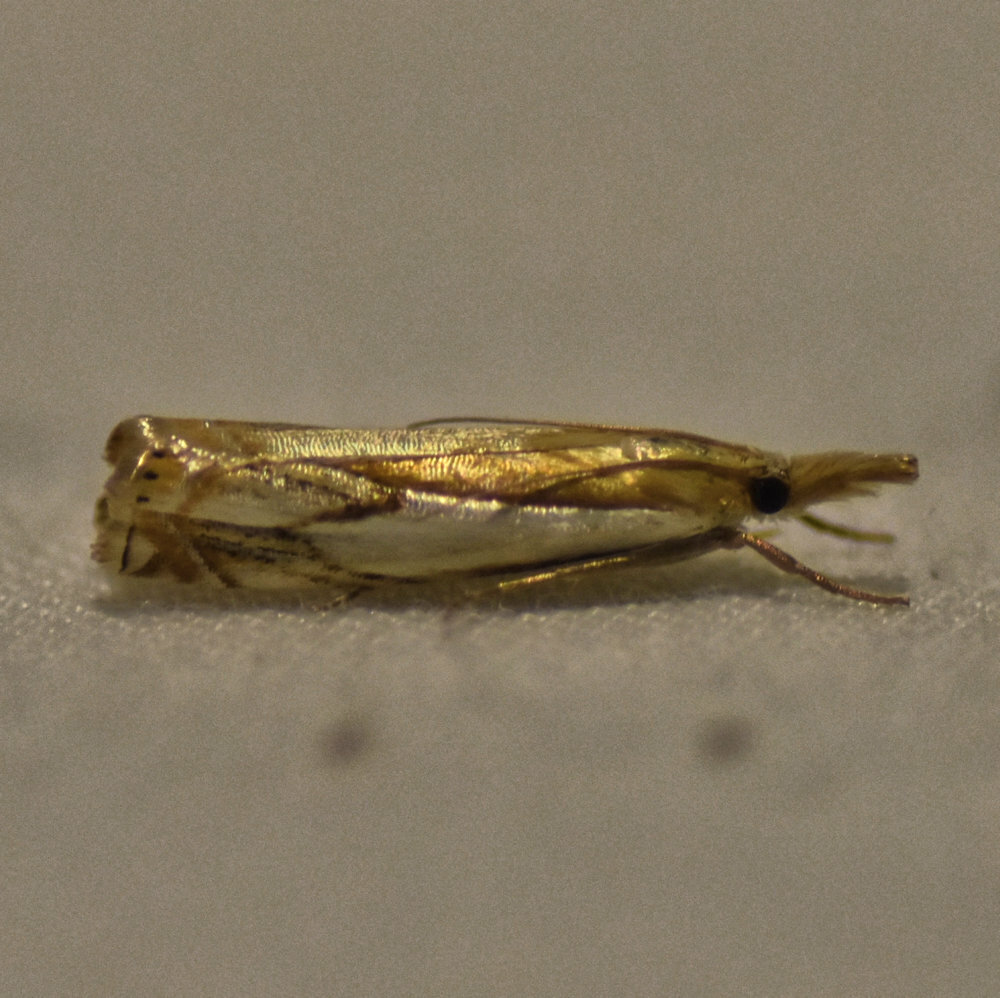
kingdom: Animalia
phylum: Arthropoda
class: Insecta
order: Lepidoptera
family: Crambidae
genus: Crambus
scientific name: Crambus agitatellus
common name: Double-banded grass-veneer
